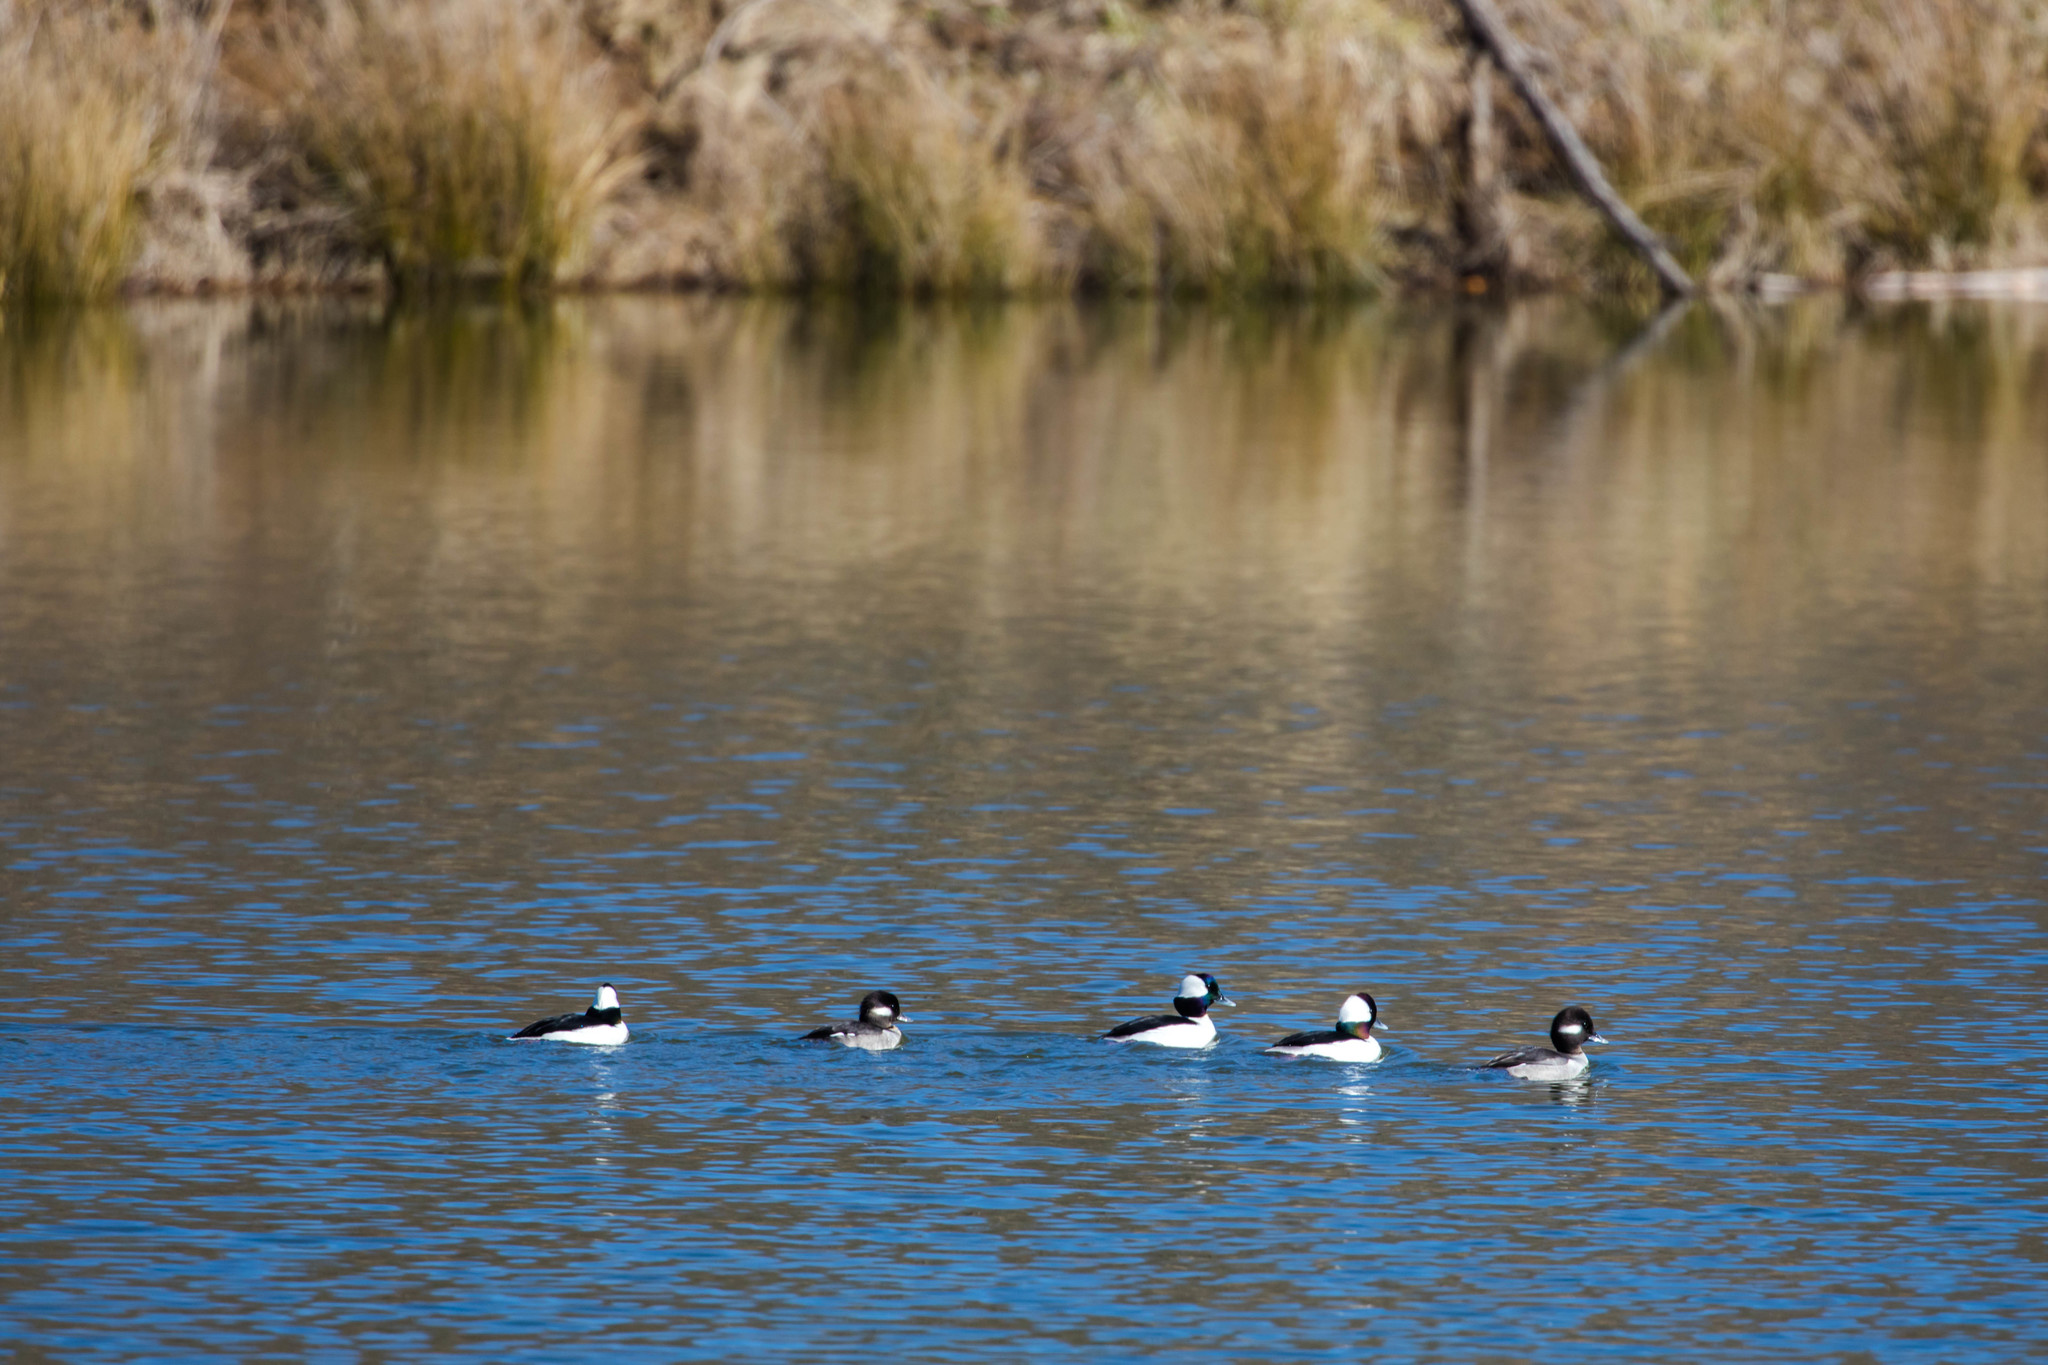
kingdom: Animalia
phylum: Chordata
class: Aves
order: Anseriformes
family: Anatidae
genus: Bucephala
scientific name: Bucephala albeola
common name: Bufflehead
